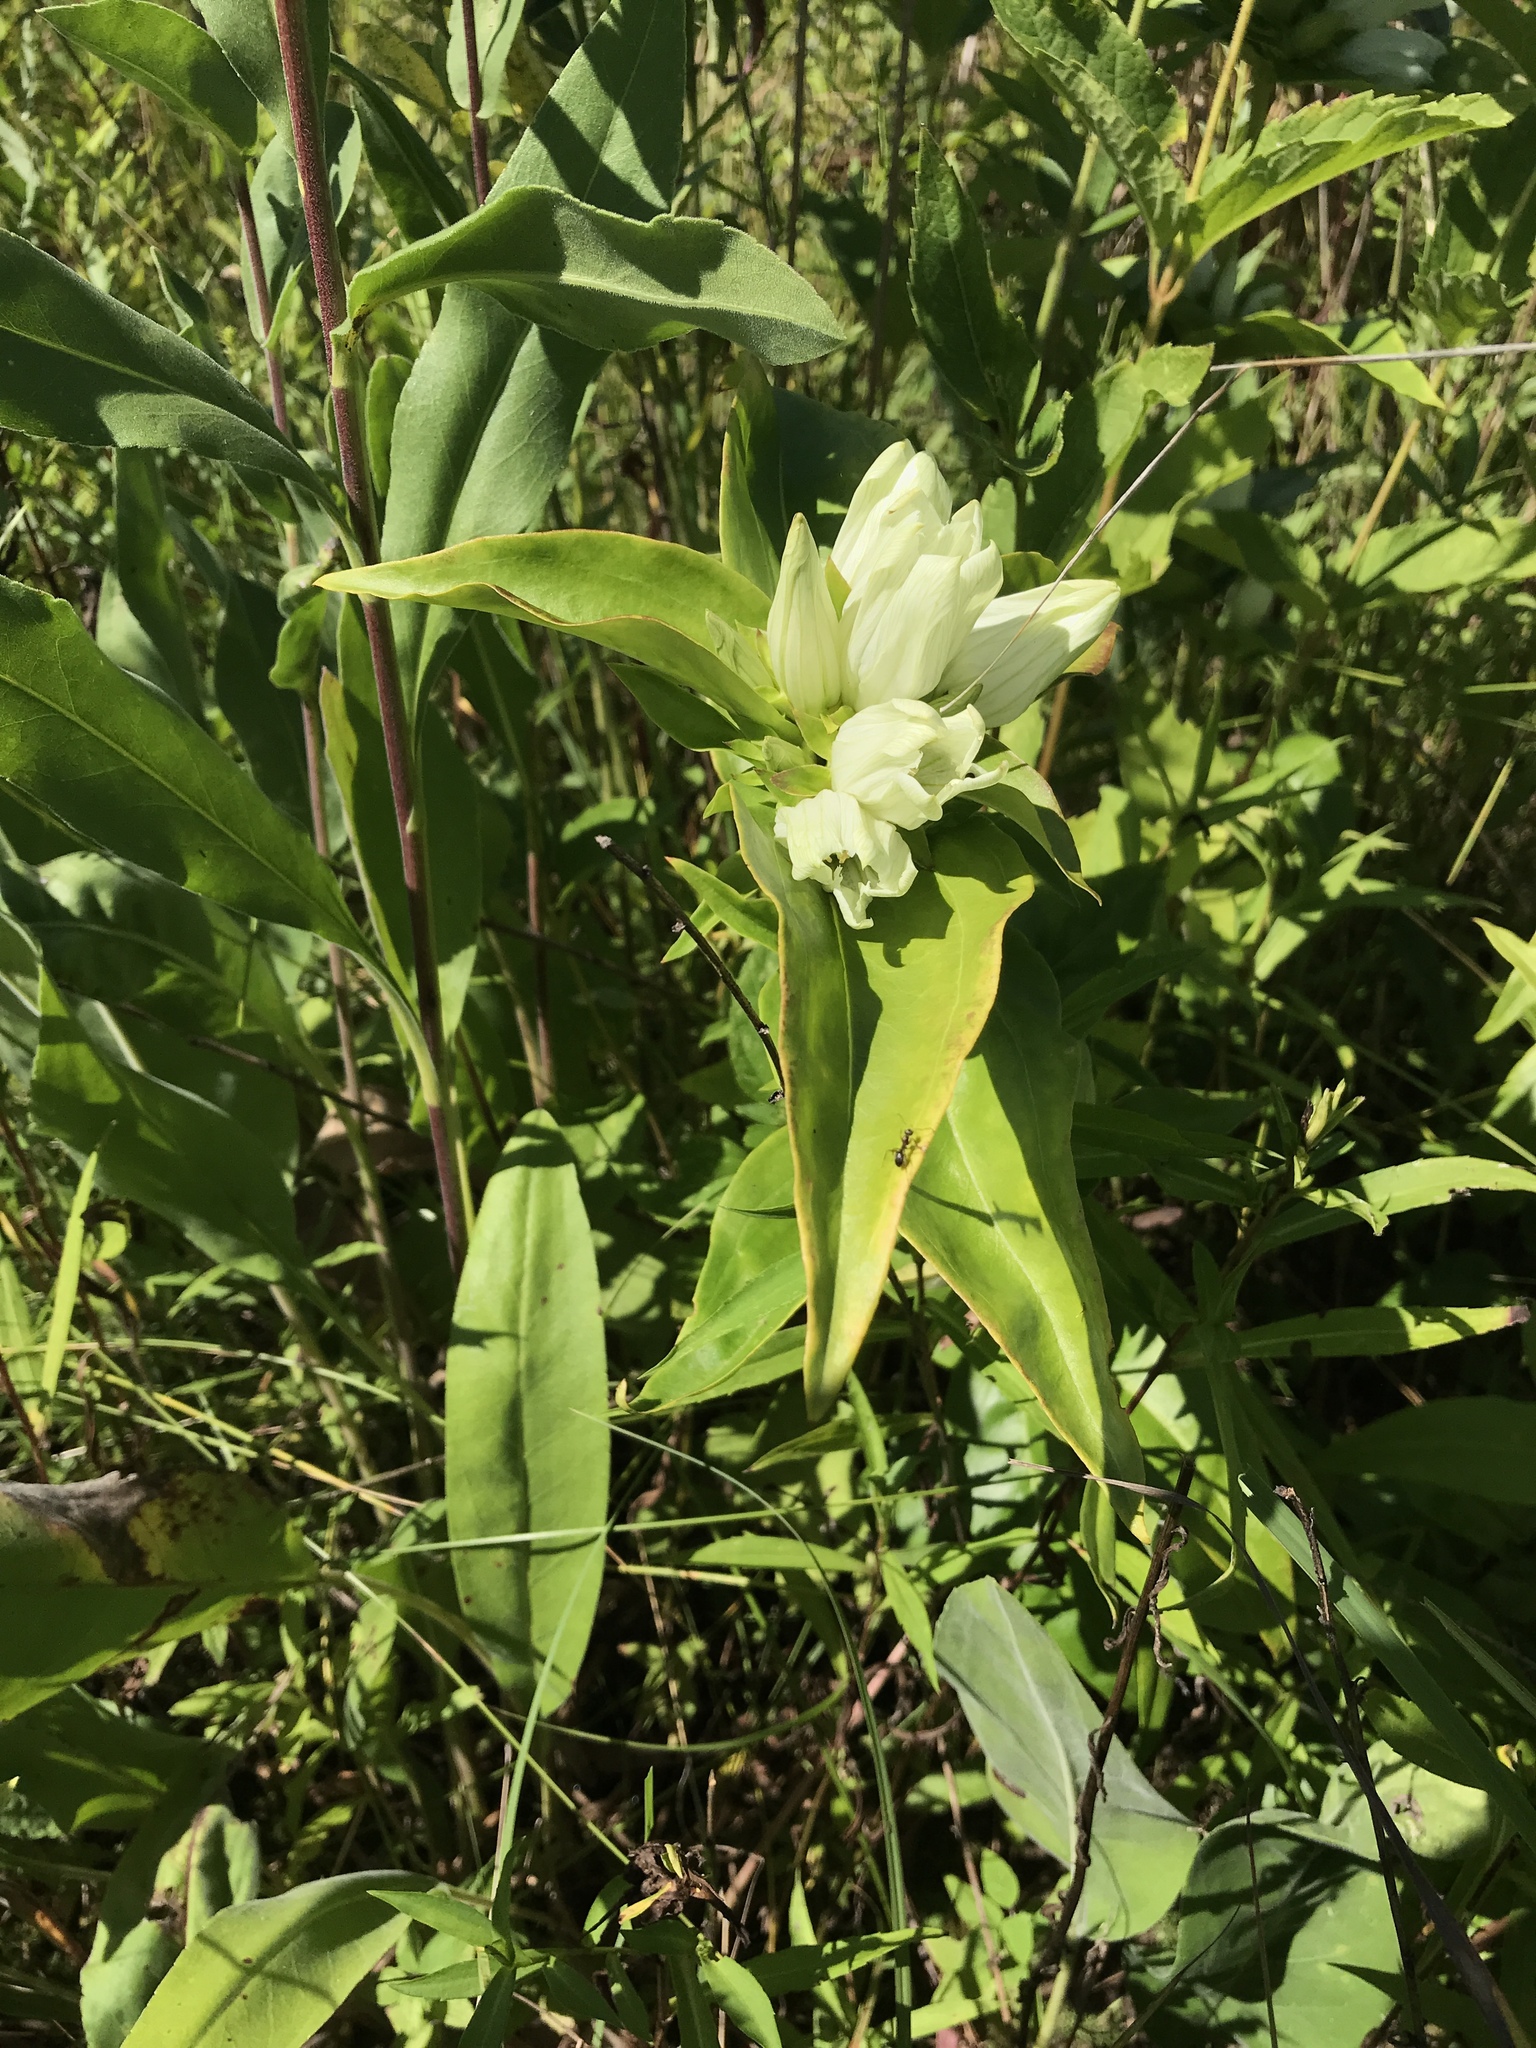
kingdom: Plantae
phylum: Tracheophyta
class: Magnoliopsida
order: Gentianales
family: Gentianaceae
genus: Gentiana
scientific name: Gentiana alba
